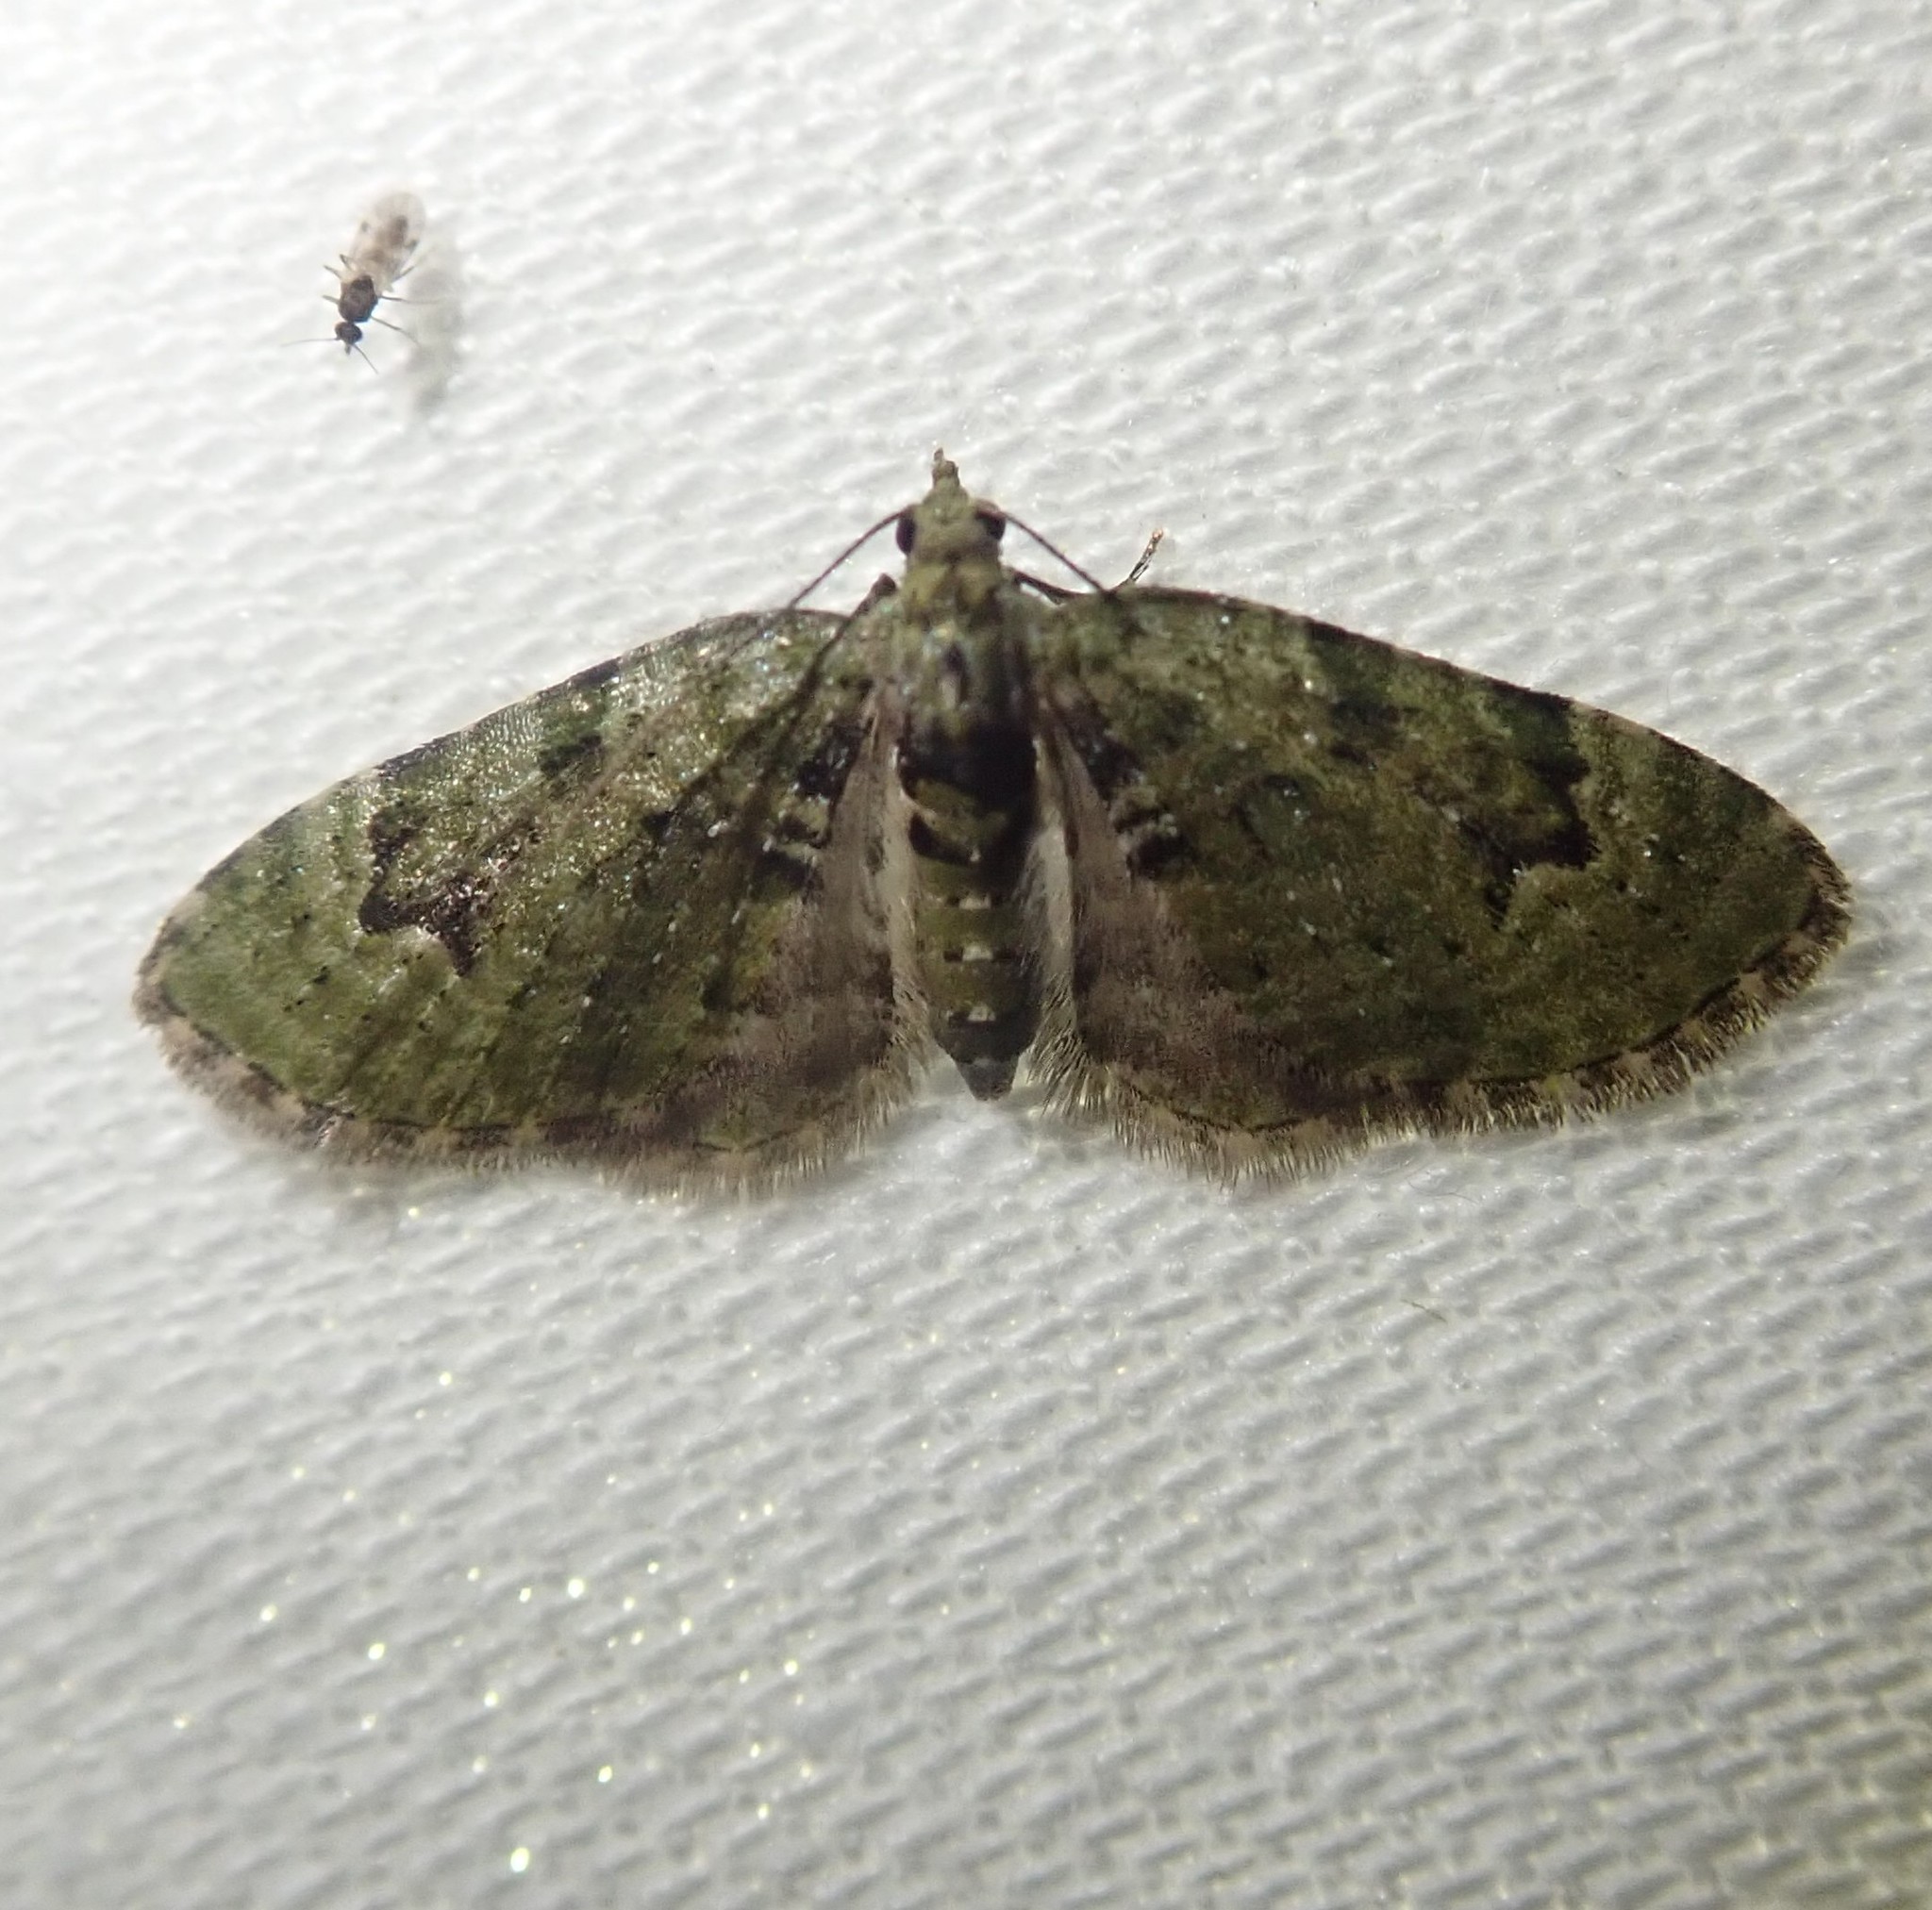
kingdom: Animalia
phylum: Arthropoda
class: Insecta
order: Lepidoptera
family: Geometridae
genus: Chloroclystis
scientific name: Chloroclystis v-ata
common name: V-pug
